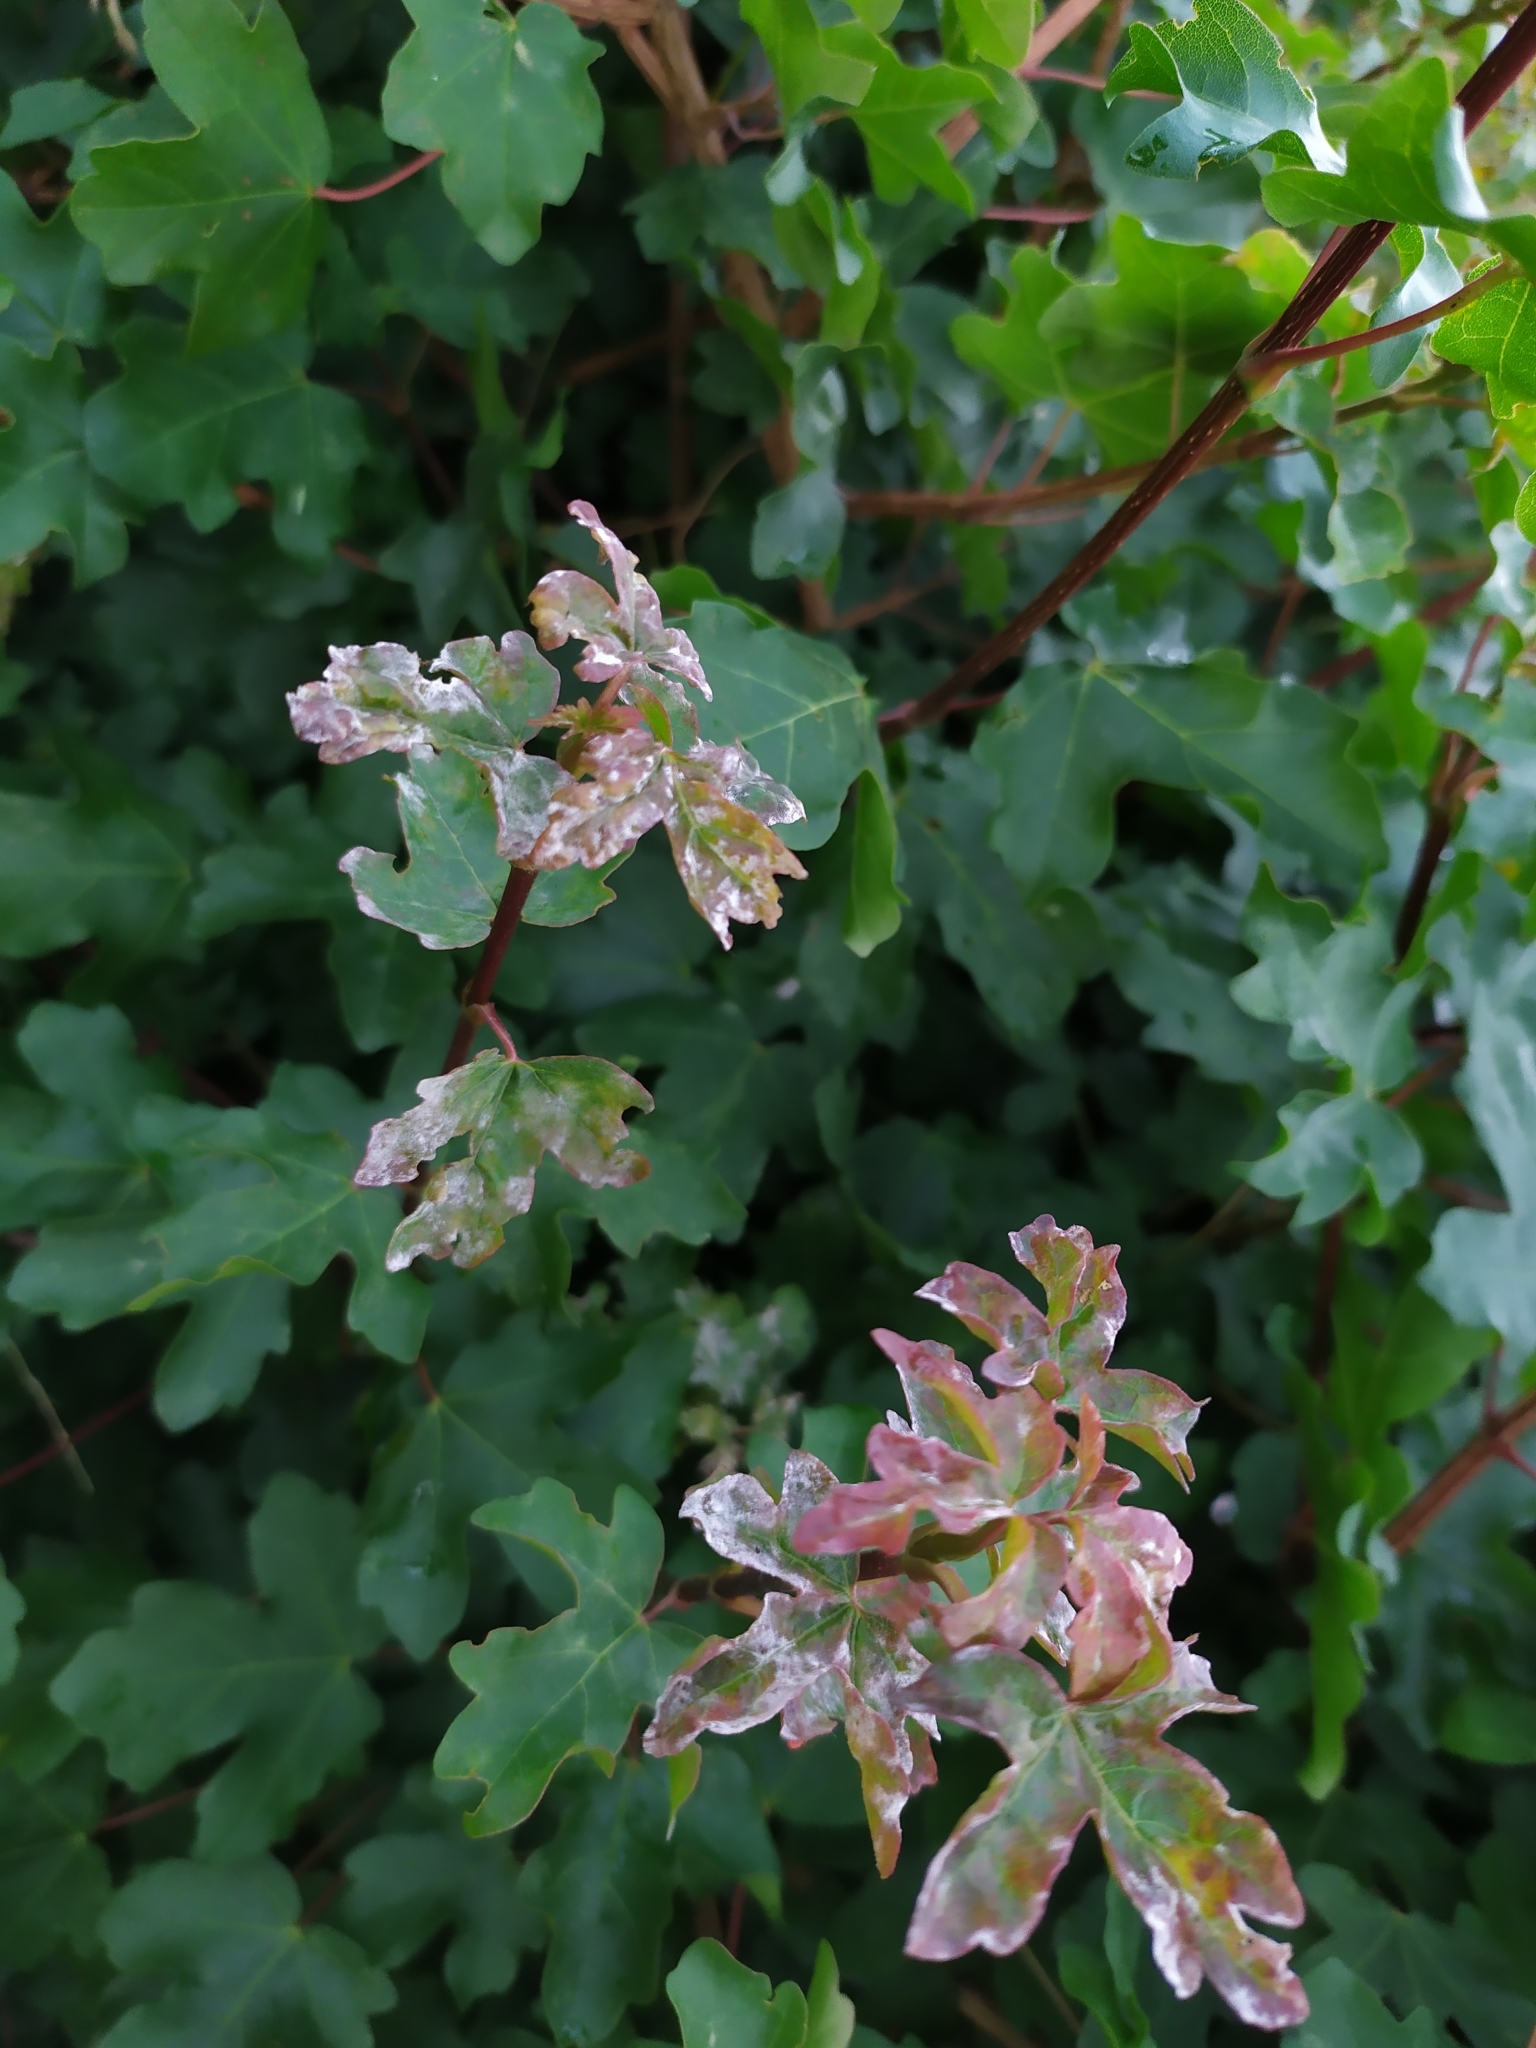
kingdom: Fungi
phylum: Ascomycota
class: Leotiomycetes
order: Helotiales
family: Erysiphaceae
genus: Sawadaea
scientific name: Sawadaea bicornis
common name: Maple mildew
